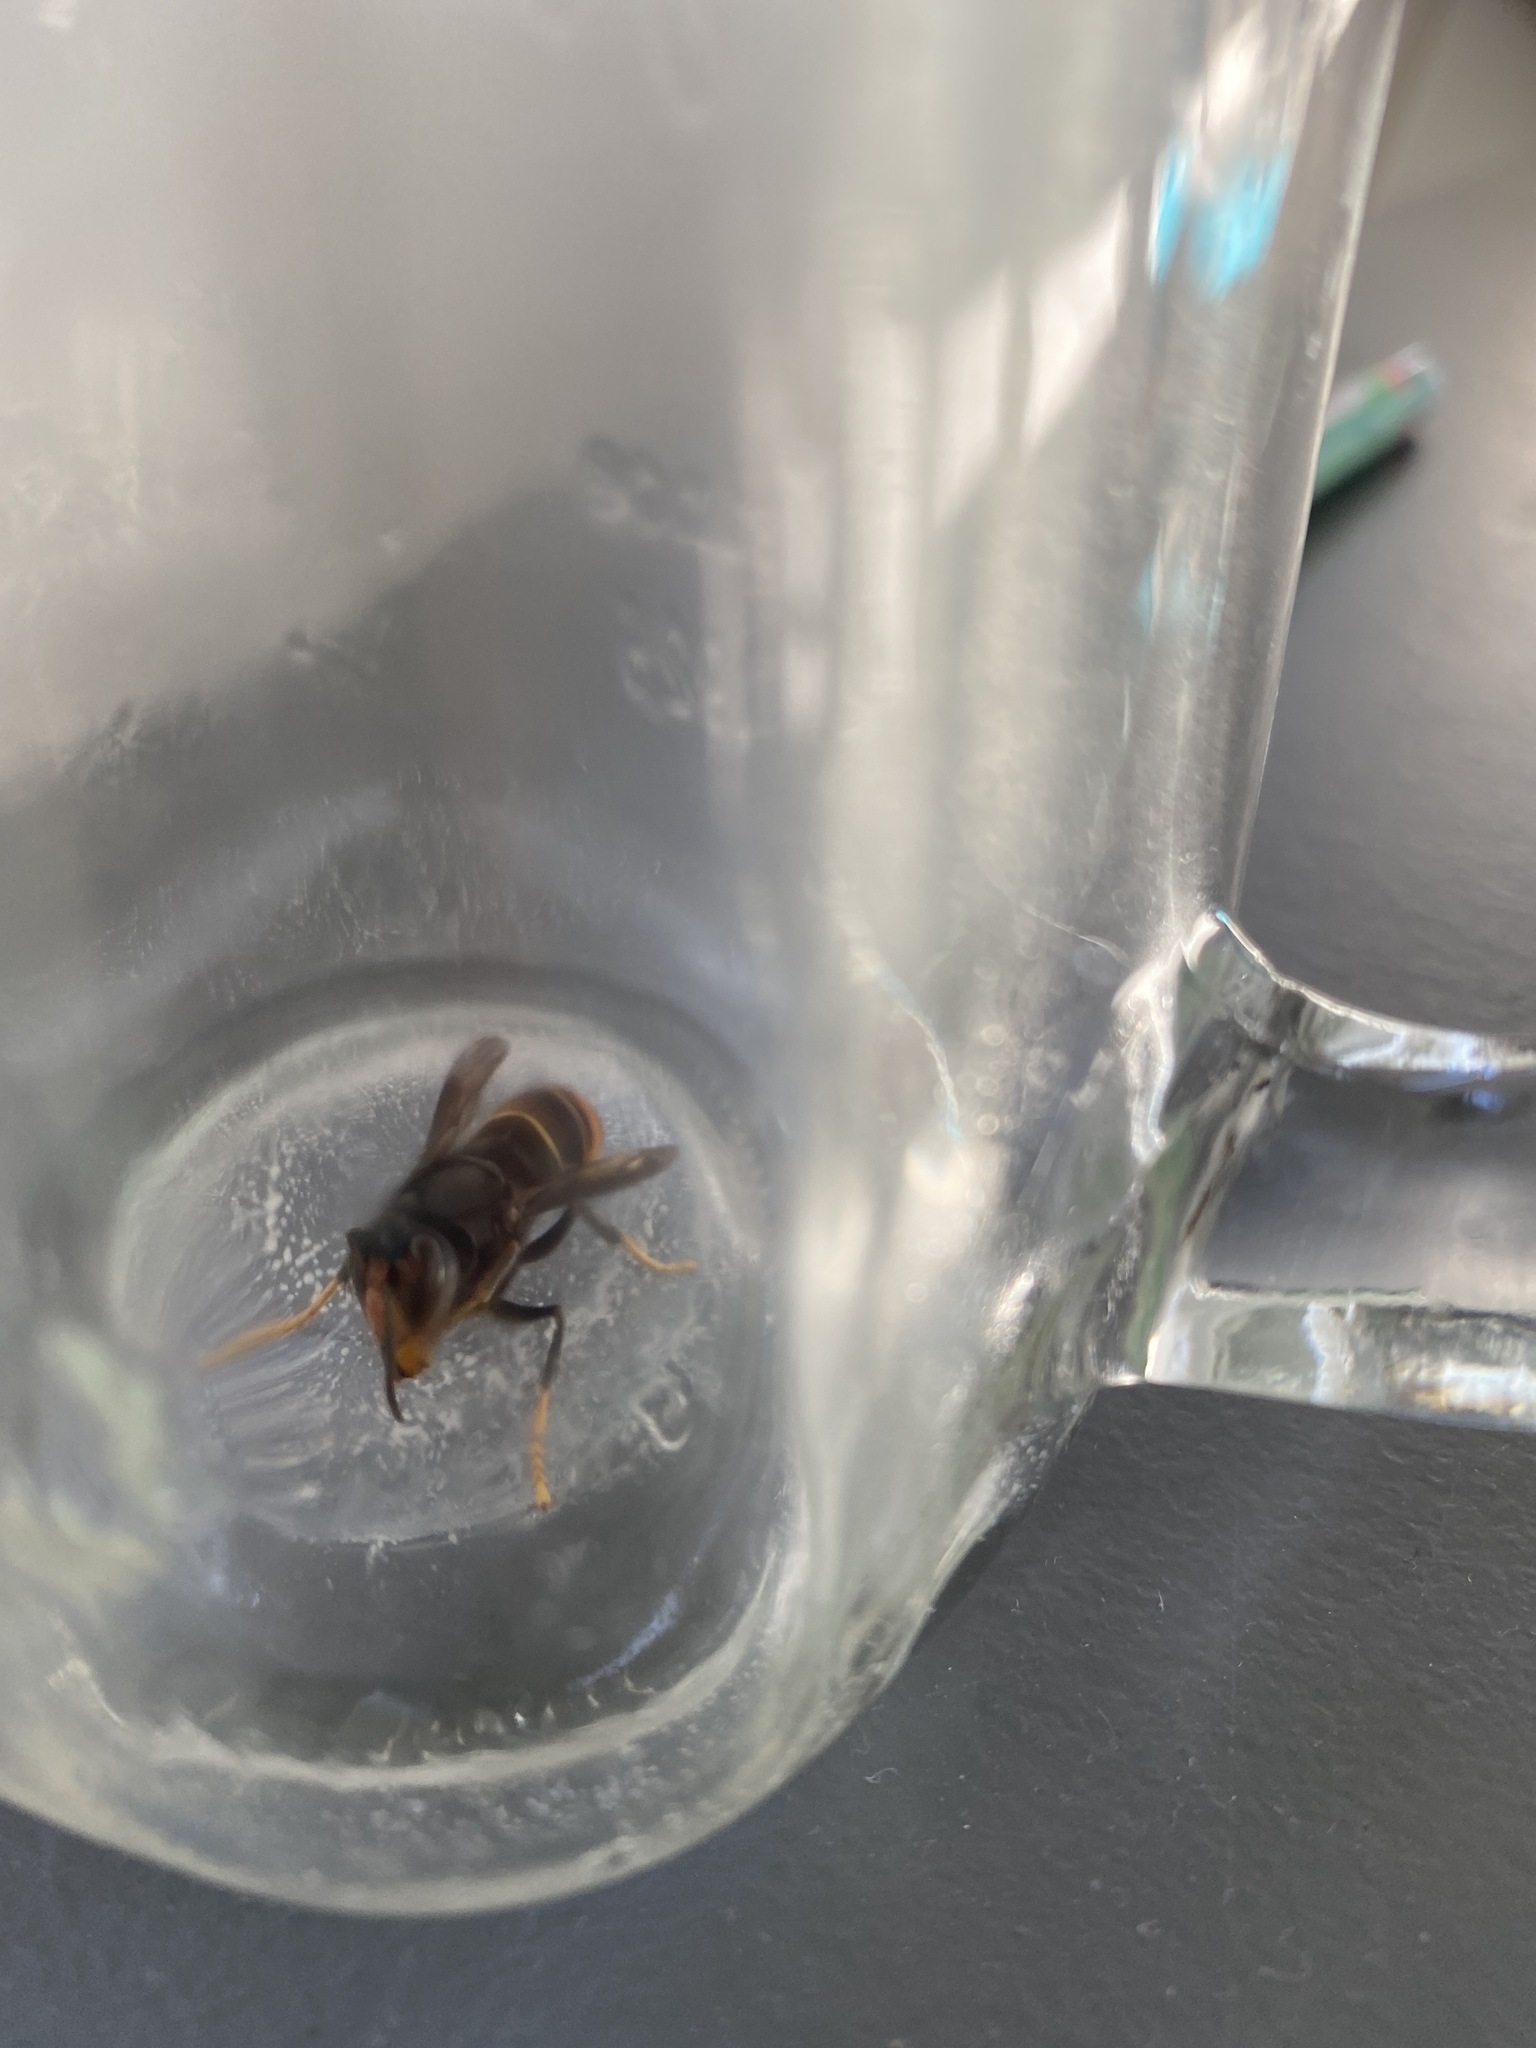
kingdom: Animalia
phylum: Arthropoda
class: Insecta
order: Hymenoptera
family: Vespidae
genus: Vespa
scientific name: Vespa velutina
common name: Asian hornet
